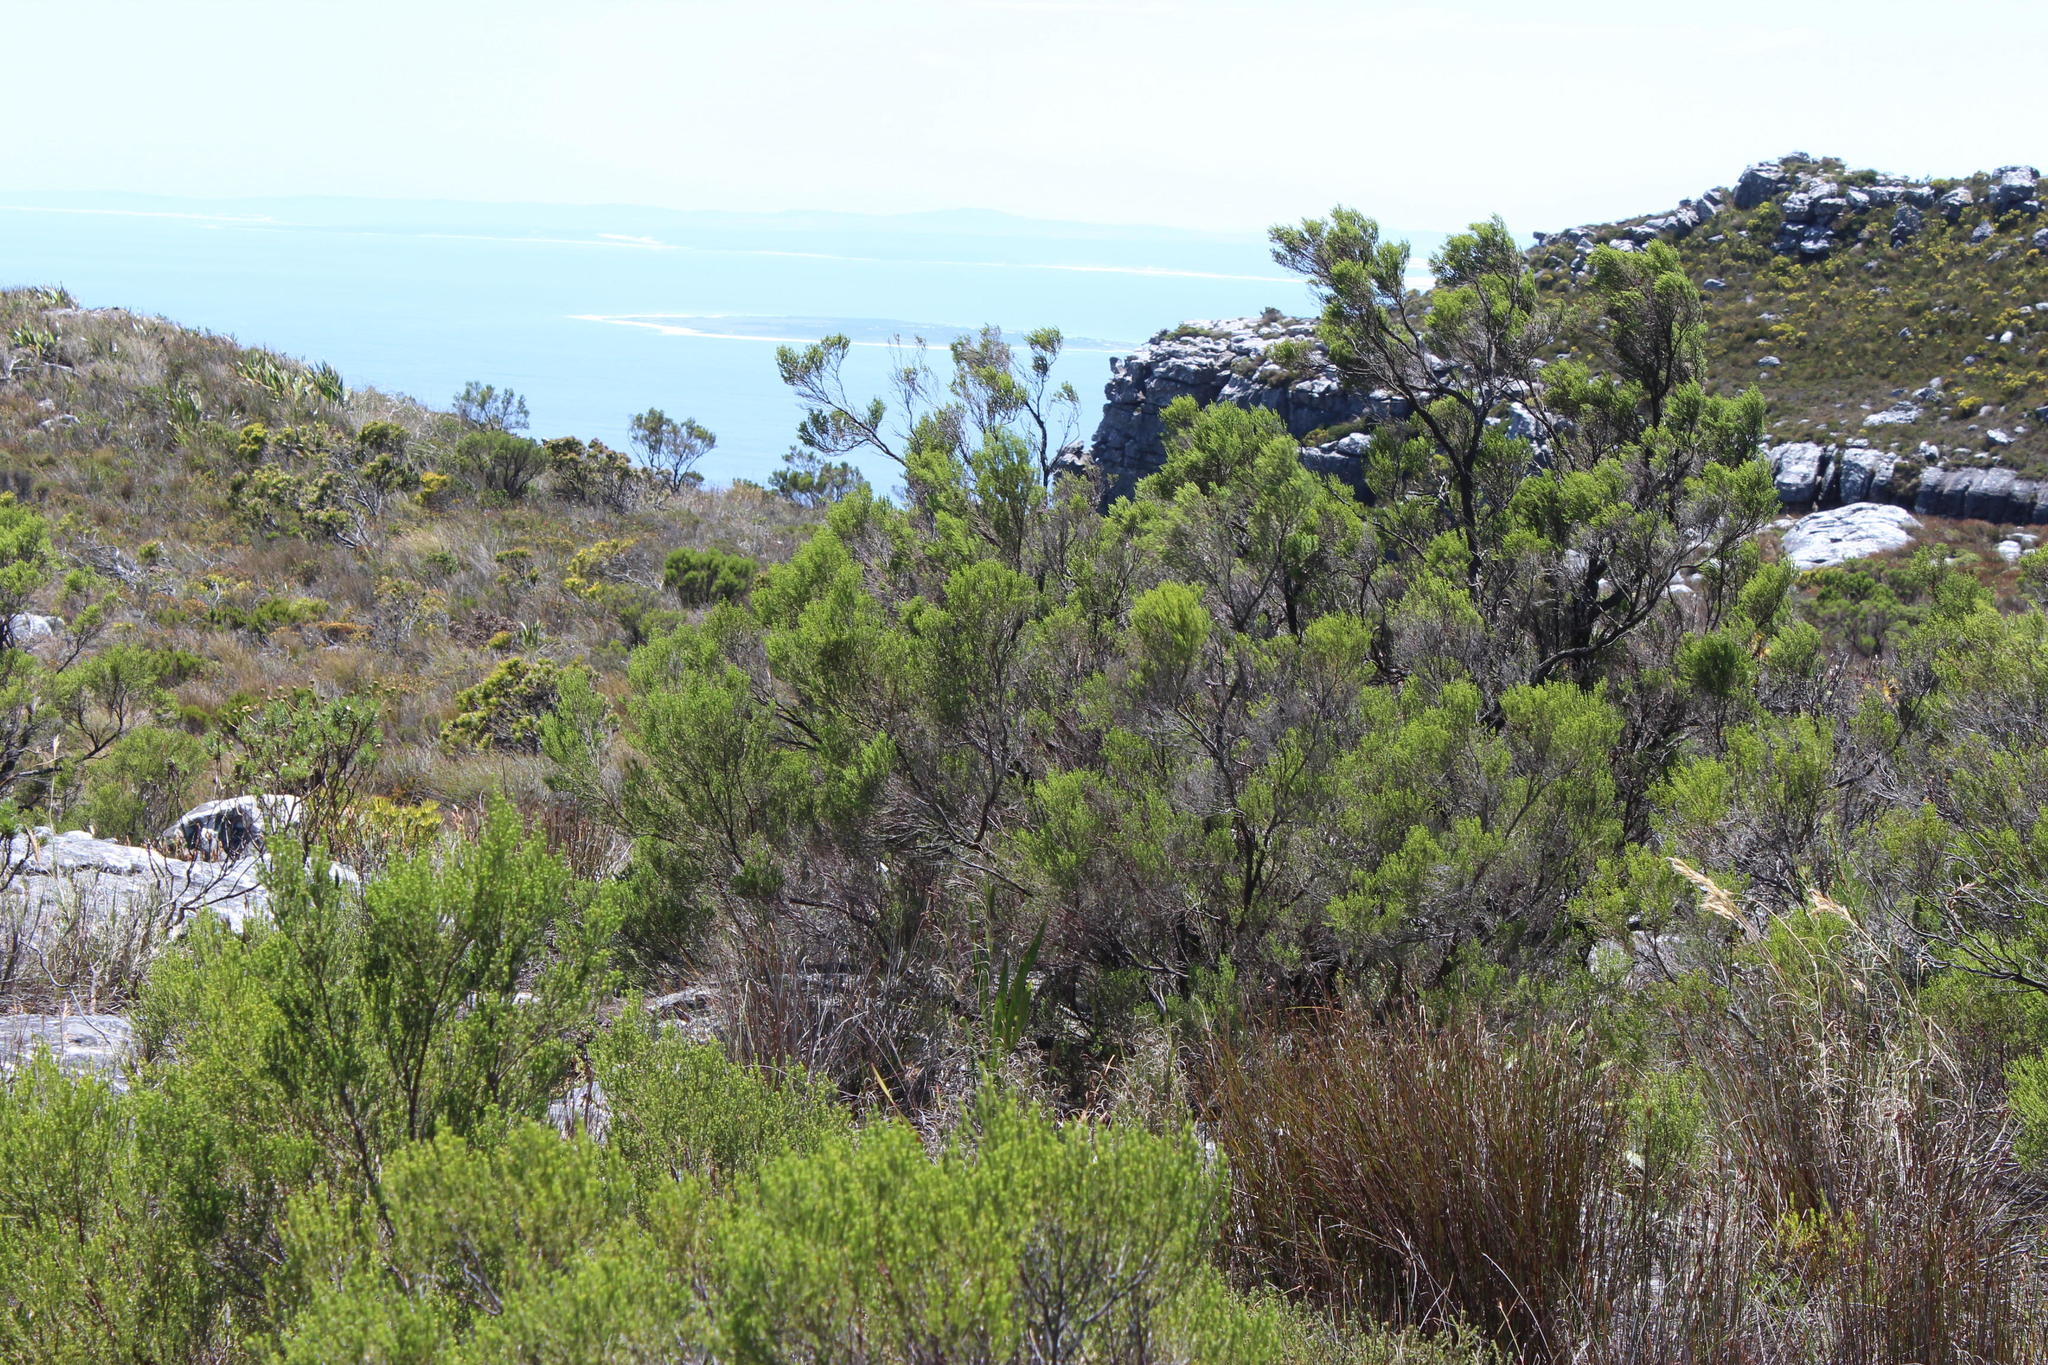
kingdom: Plantae
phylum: Tracheophyta
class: Magnoliopsida
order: Ericales
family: Ericaceae
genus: Erica
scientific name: Erica tristis
